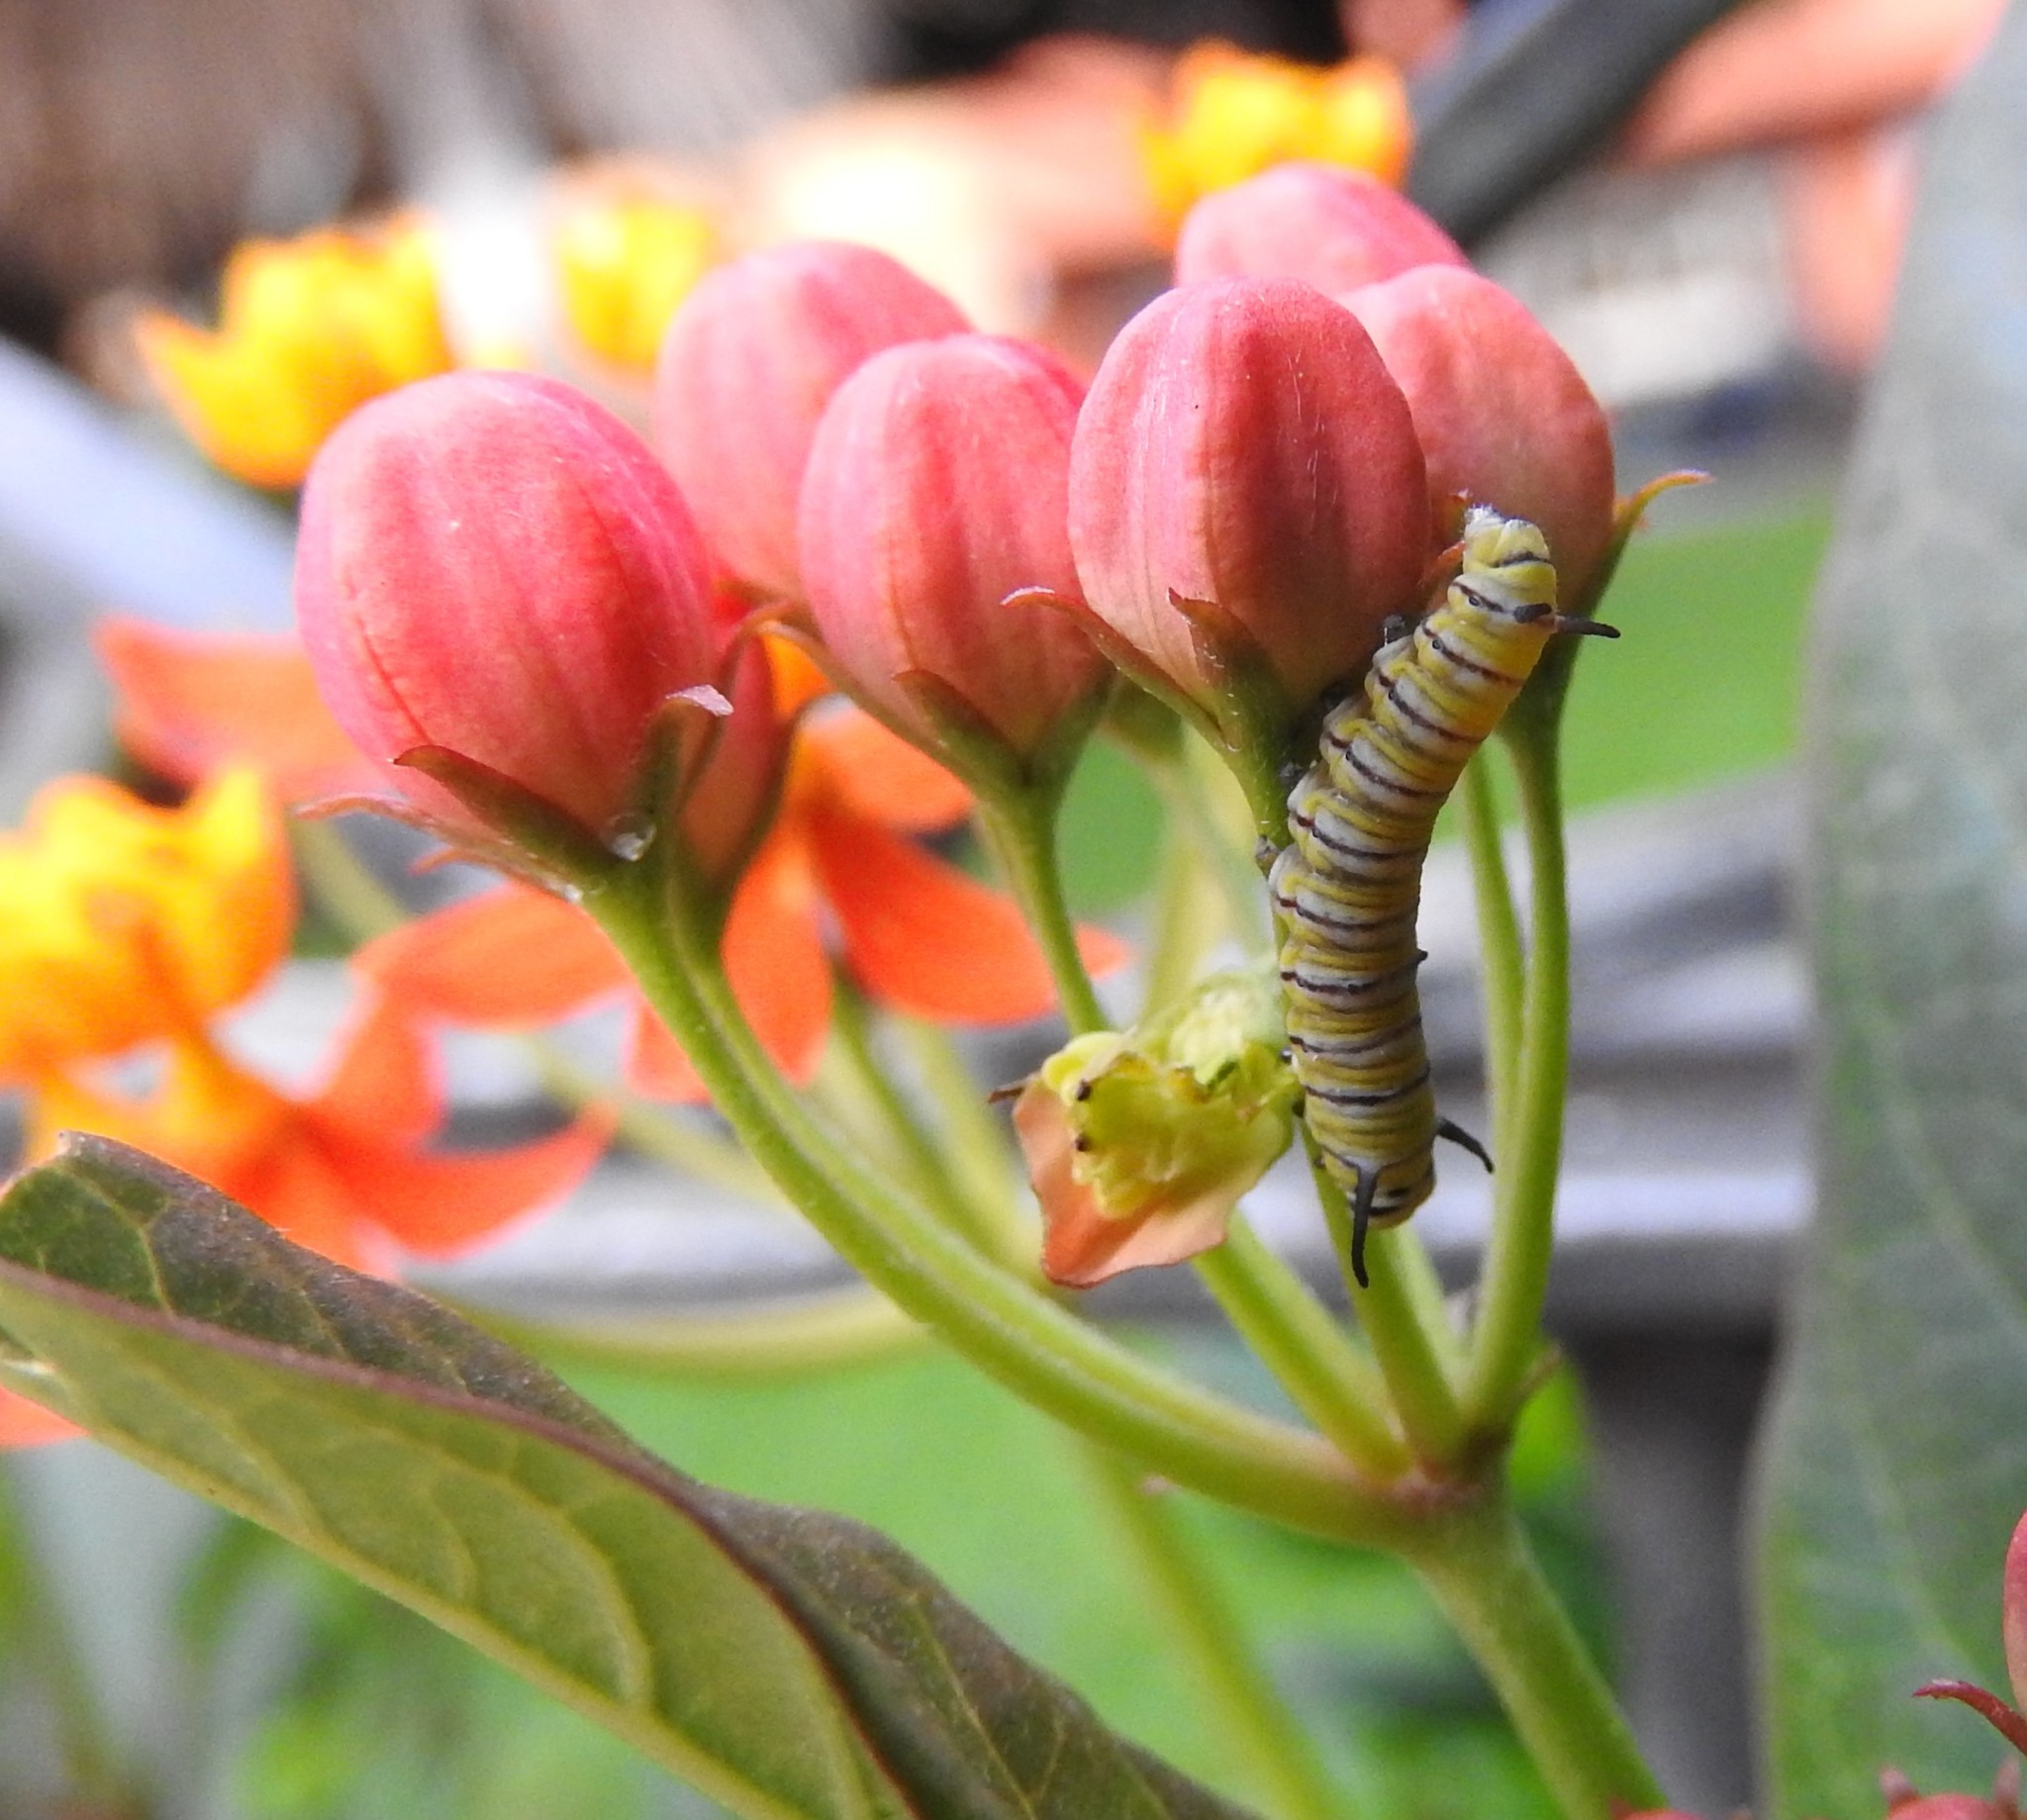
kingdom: Animalia
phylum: Arthropoda
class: Insecta
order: Lepidoptera
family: Nymphalidae
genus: Danaus
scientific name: Danaus plexippus
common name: Monarch
